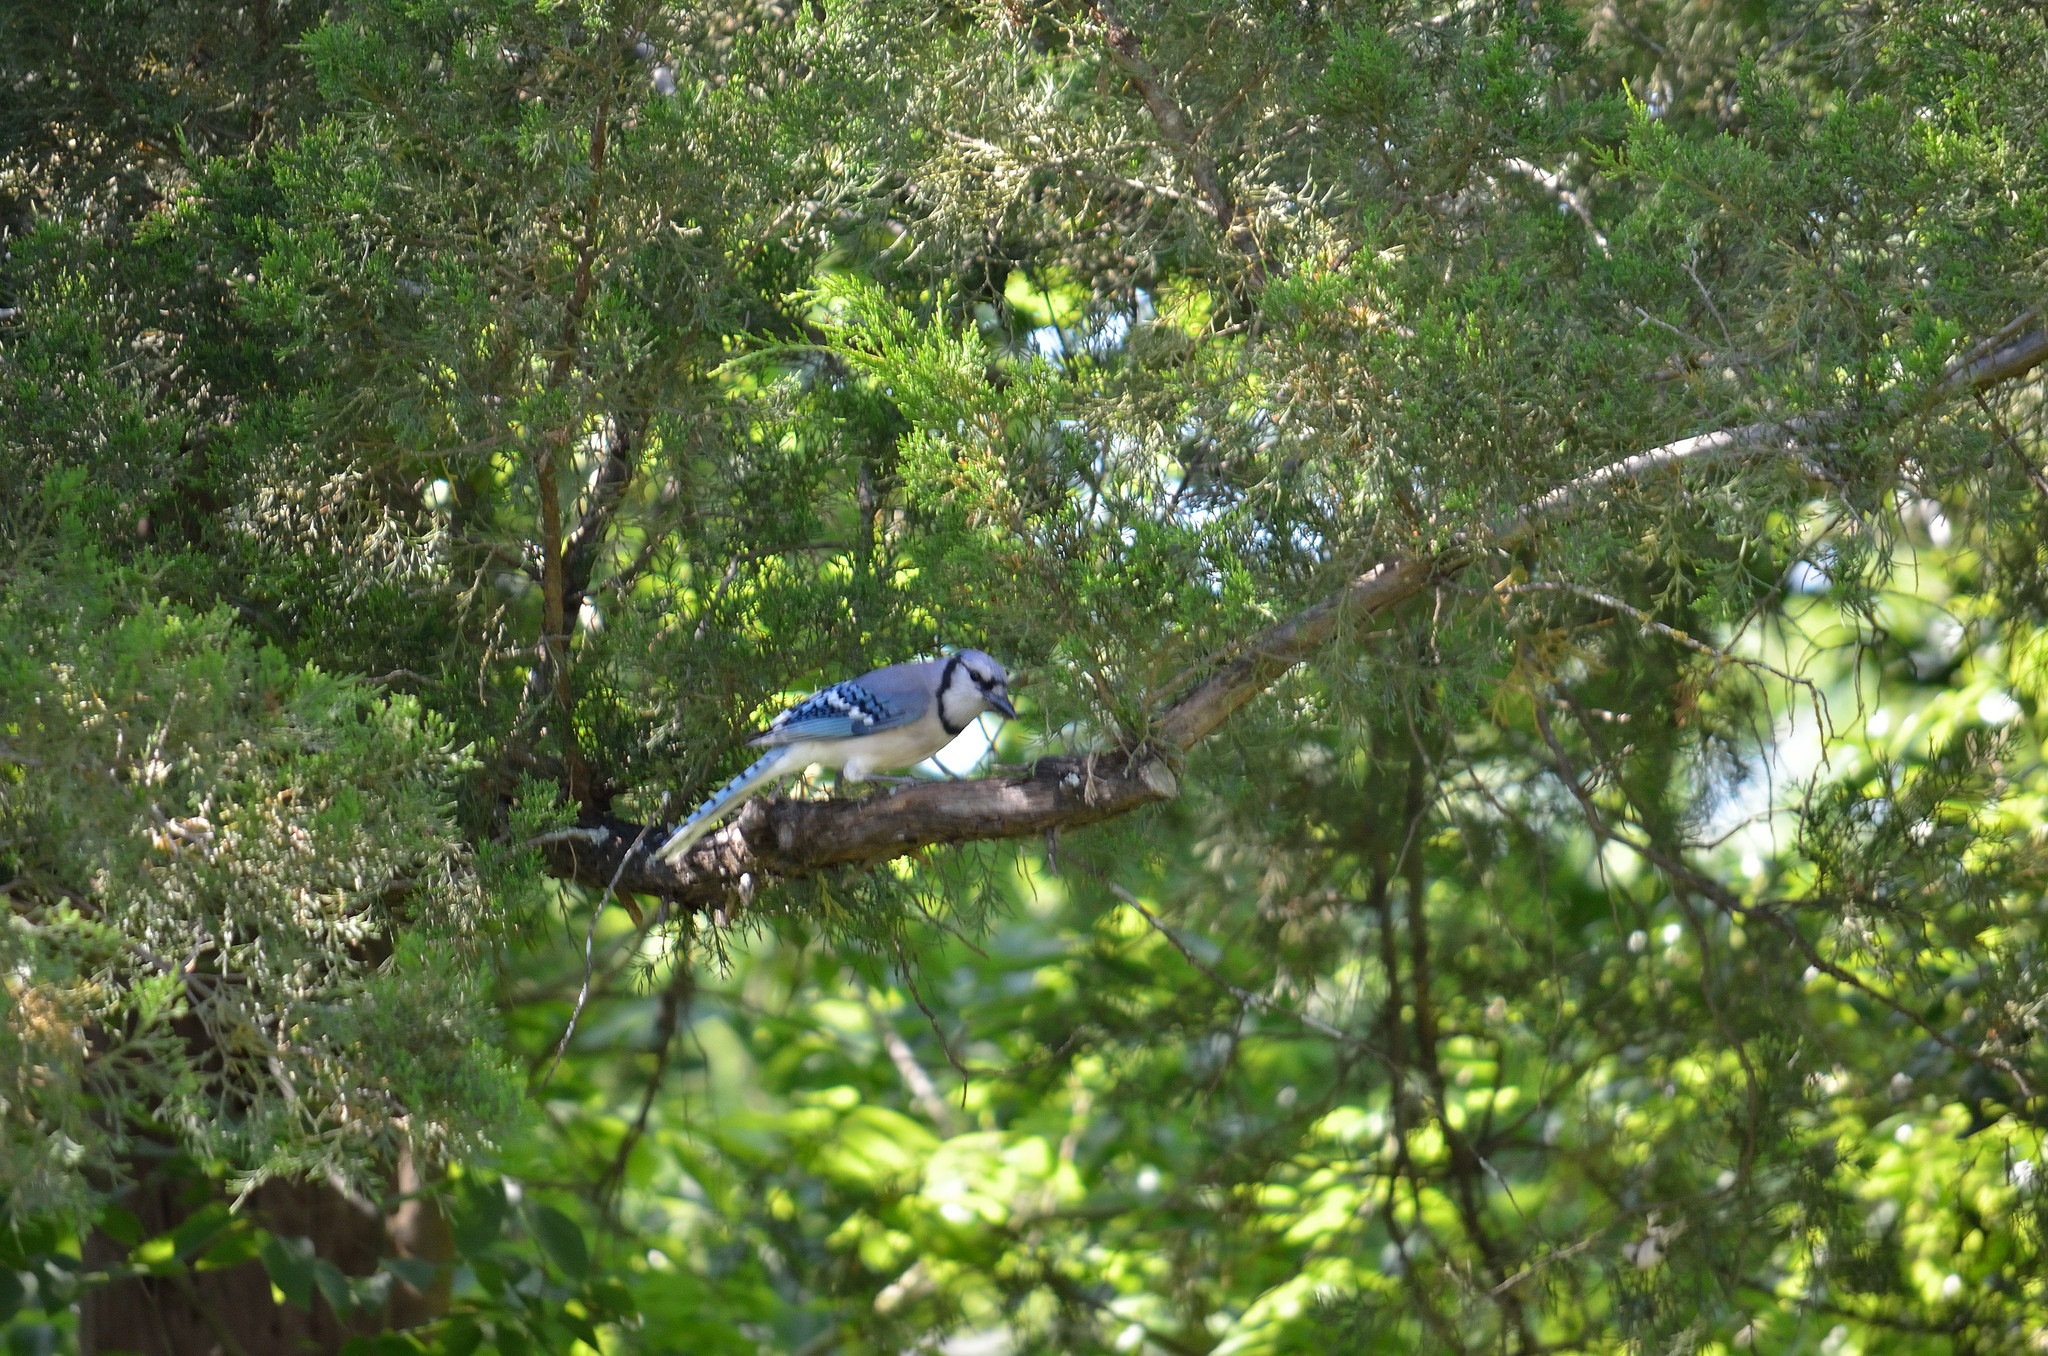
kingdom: Animalia
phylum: Chordata
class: Aves
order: Passeriformes
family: Corvidae
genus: Cyanocitta
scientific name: Cyanocitta cristata
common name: Blue jay
